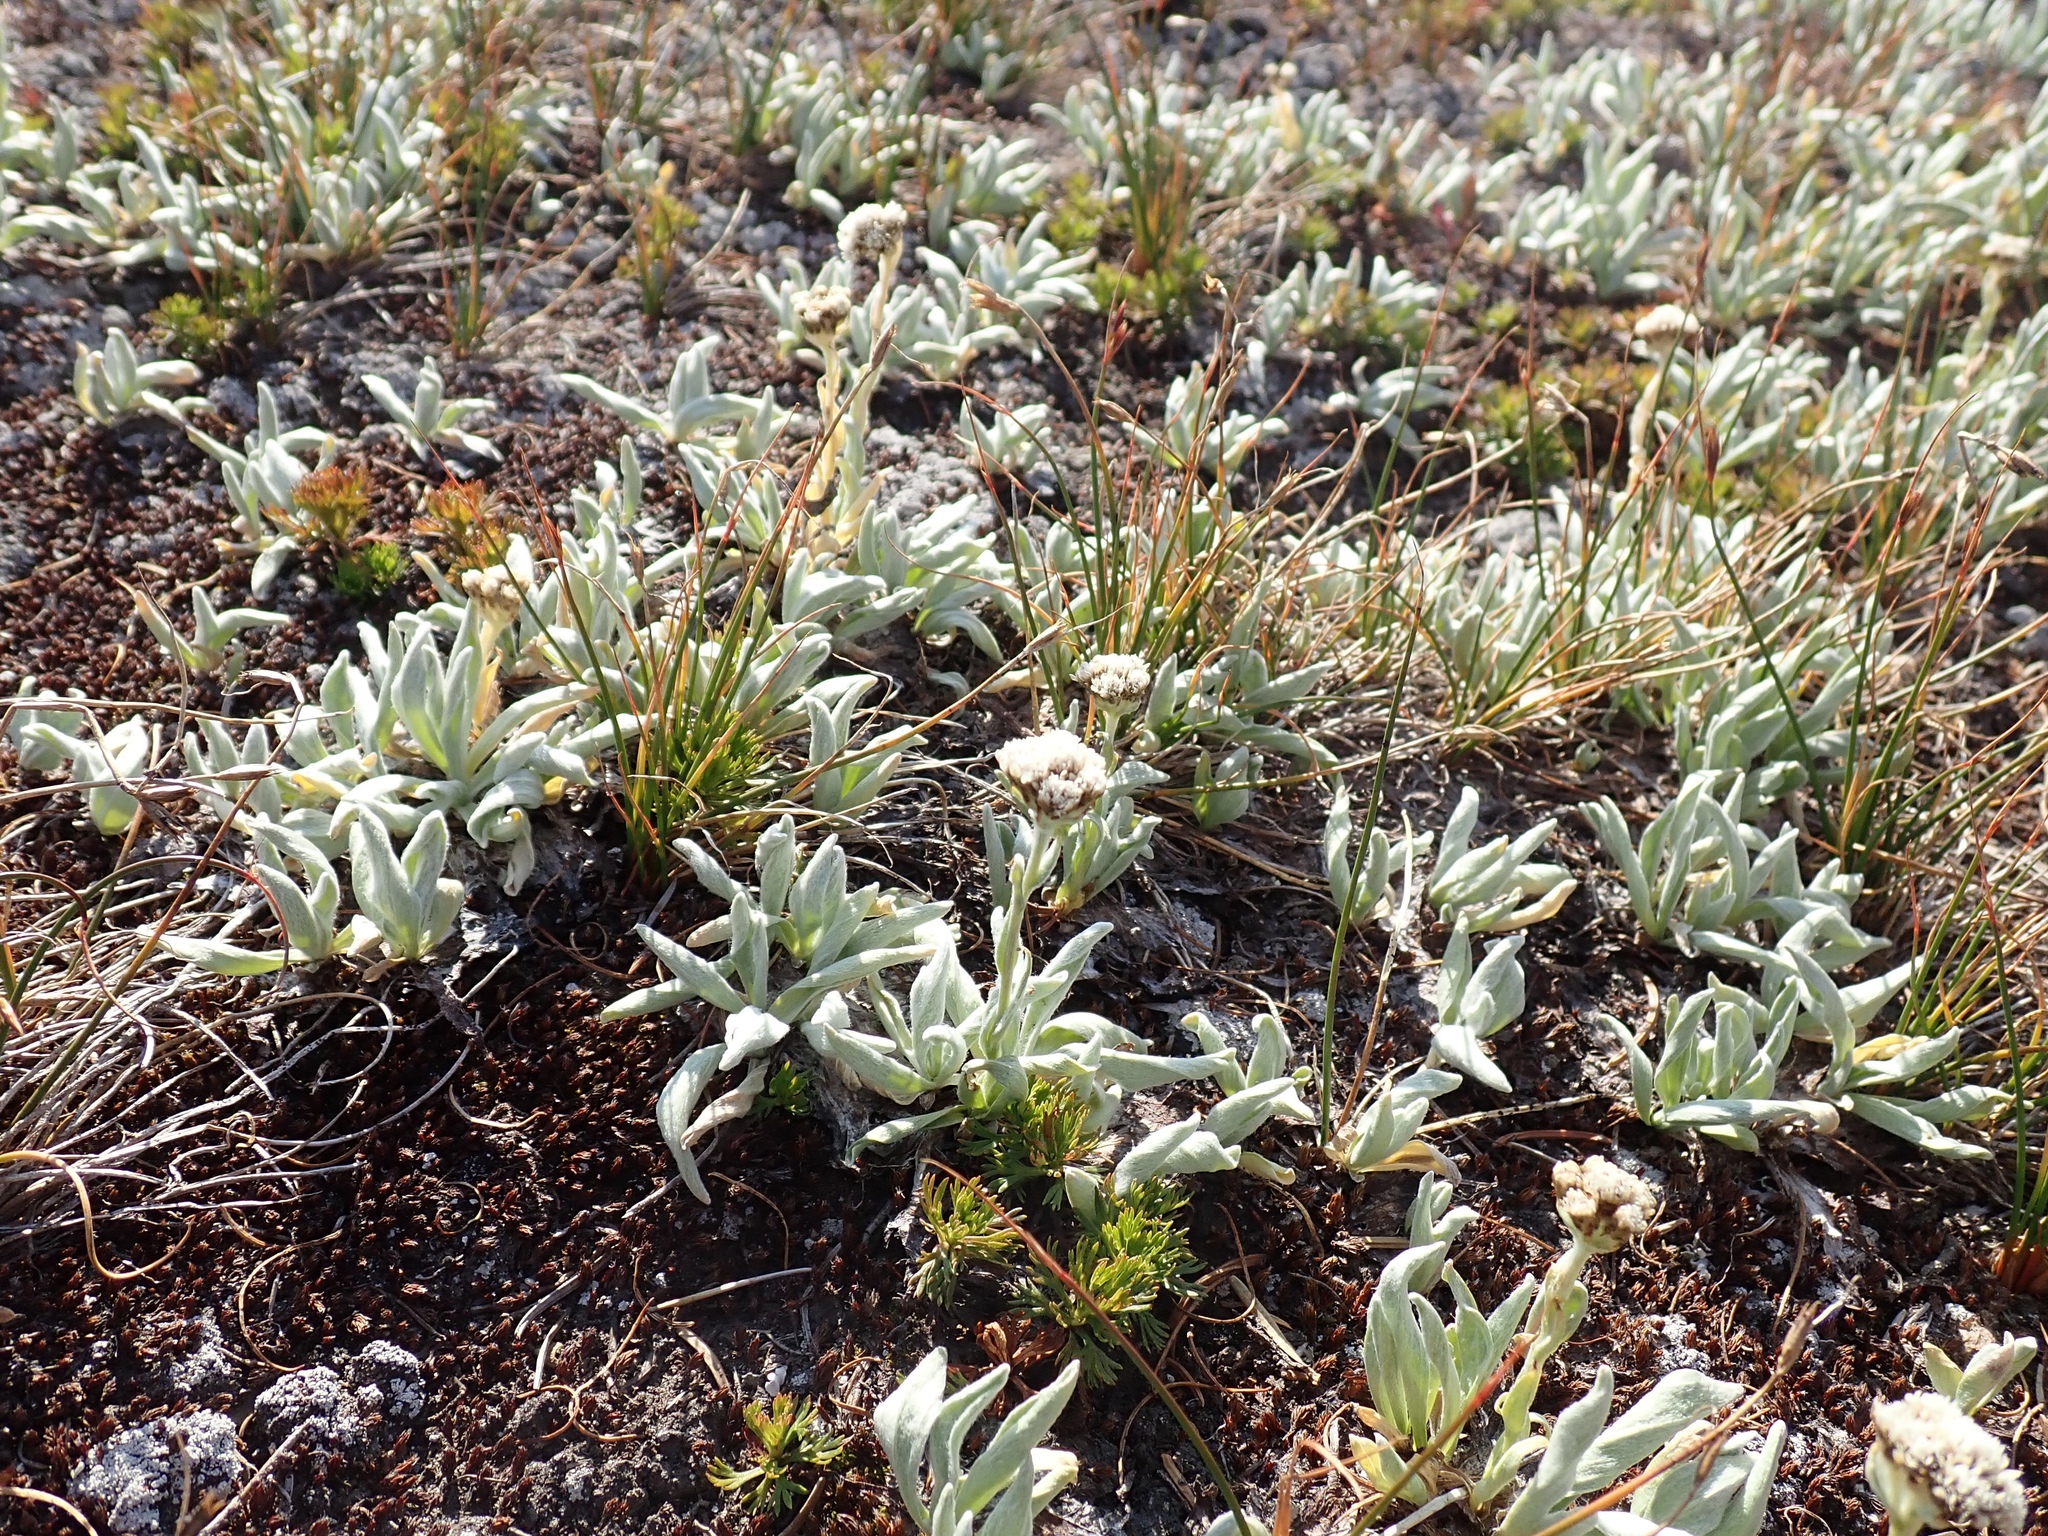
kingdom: Plantae
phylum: Tracheophyta
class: Magnoliopsida
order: Asterales
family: Asteraceae
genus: Antennaria
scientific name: Antennaria lanata
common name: Woolly pussytoes
